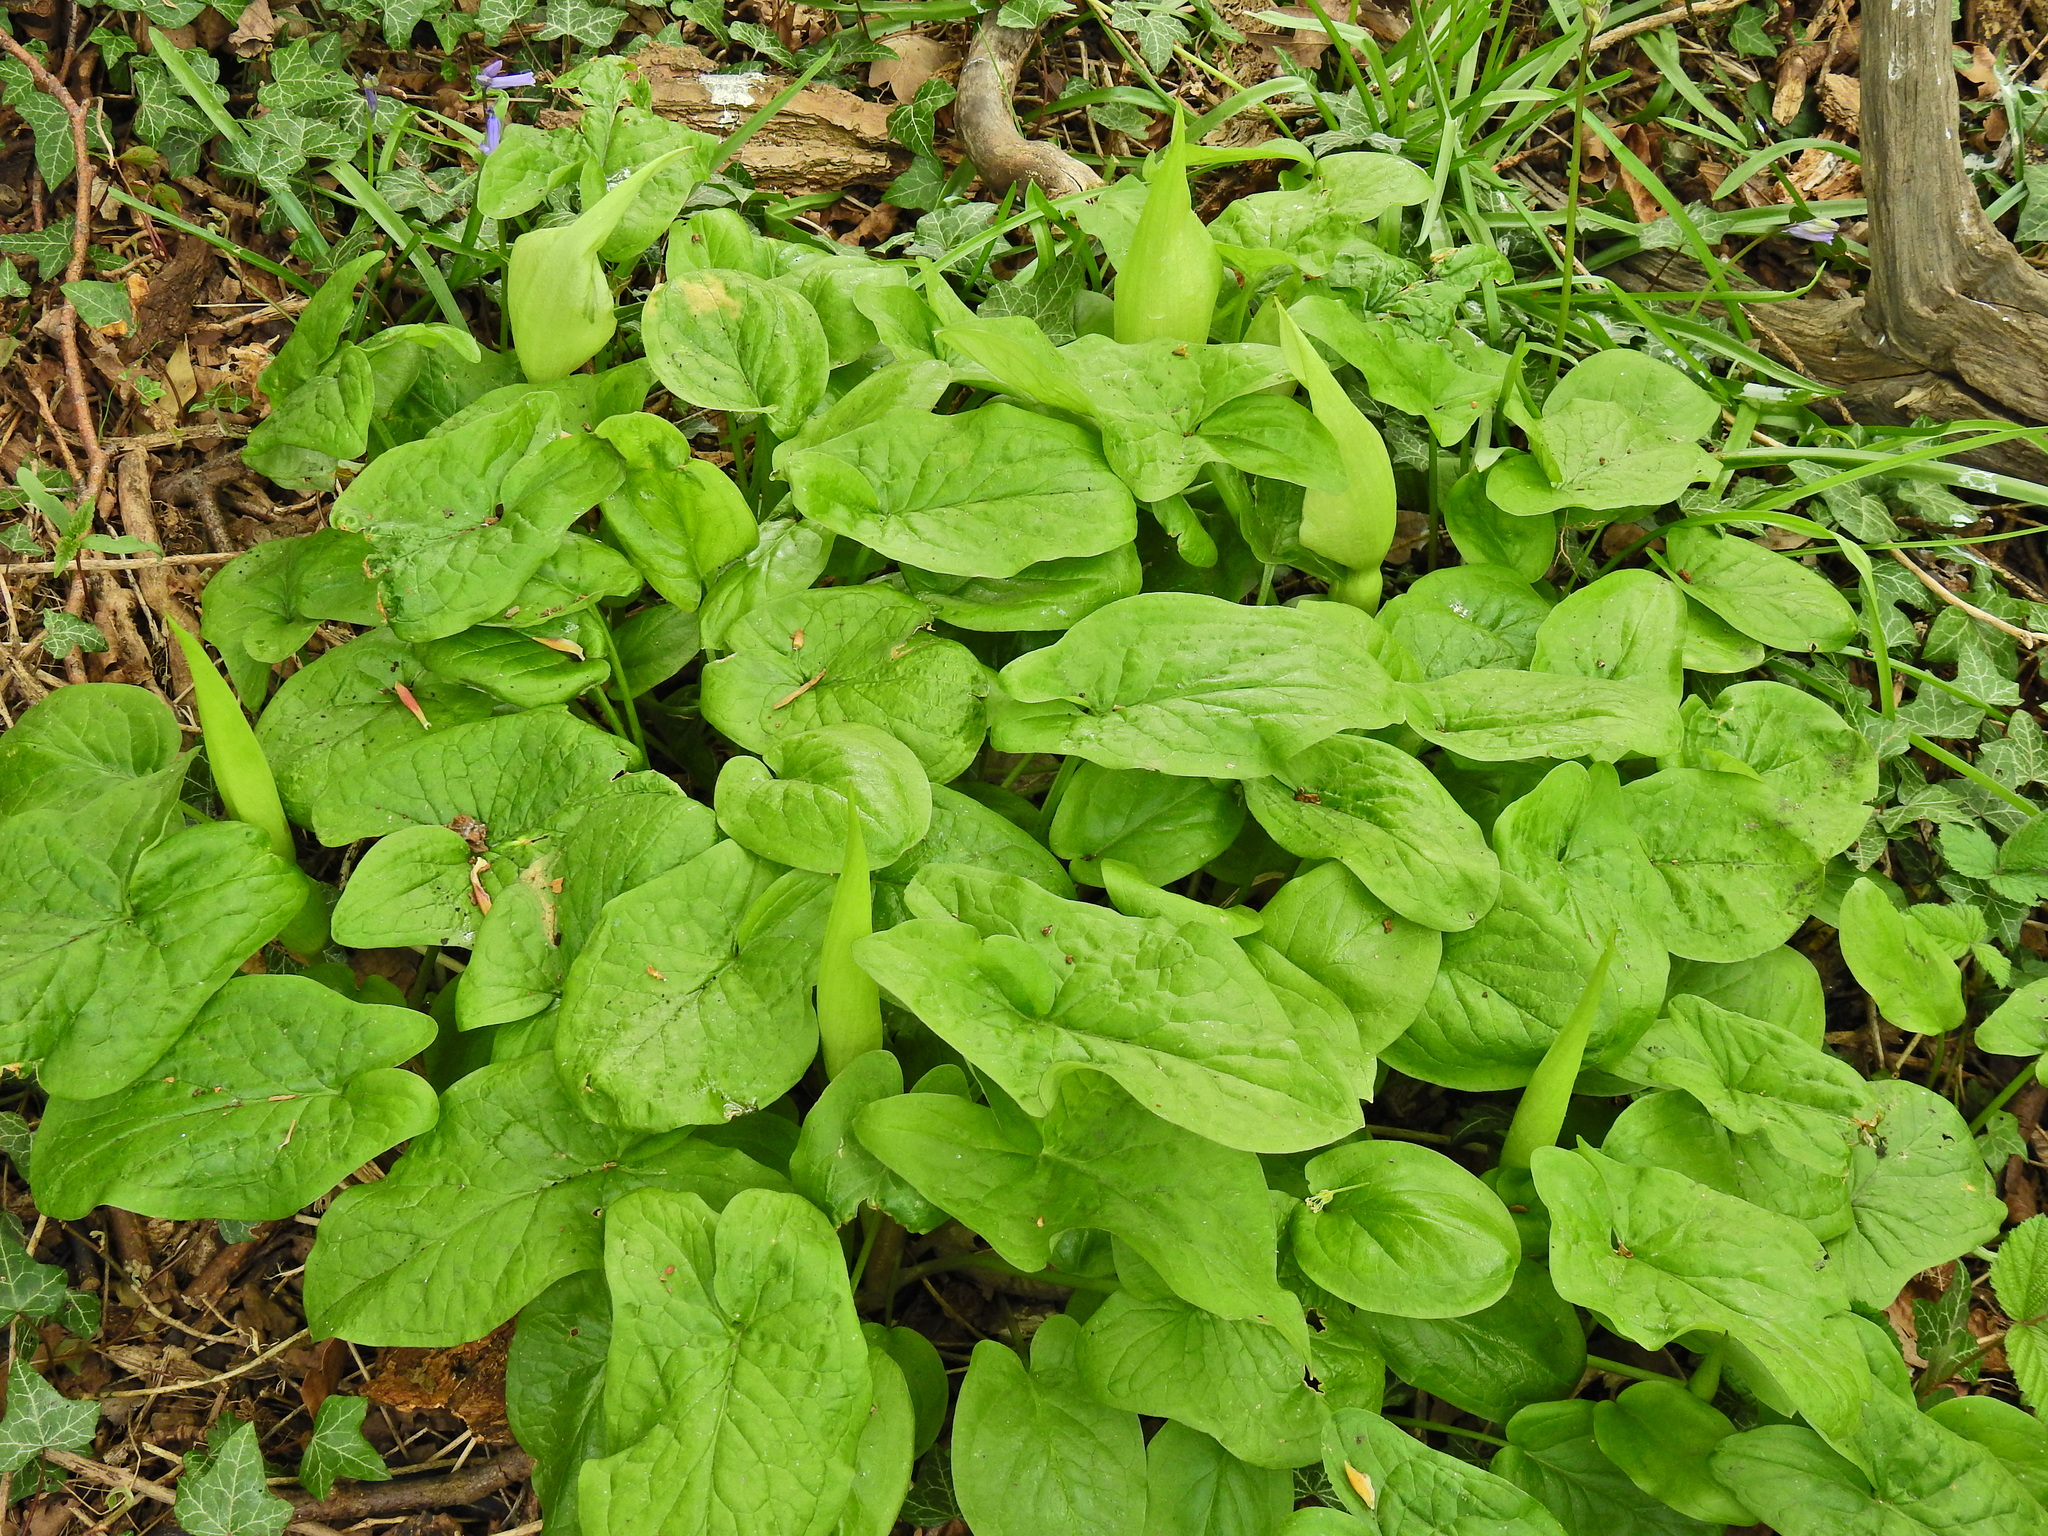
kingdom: Plantae
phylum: Tracheophyta
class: Liliopsida
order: Alismatales
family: Araceae
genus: Arum
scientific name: Arum maculatum
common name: Lords-and-ladies
